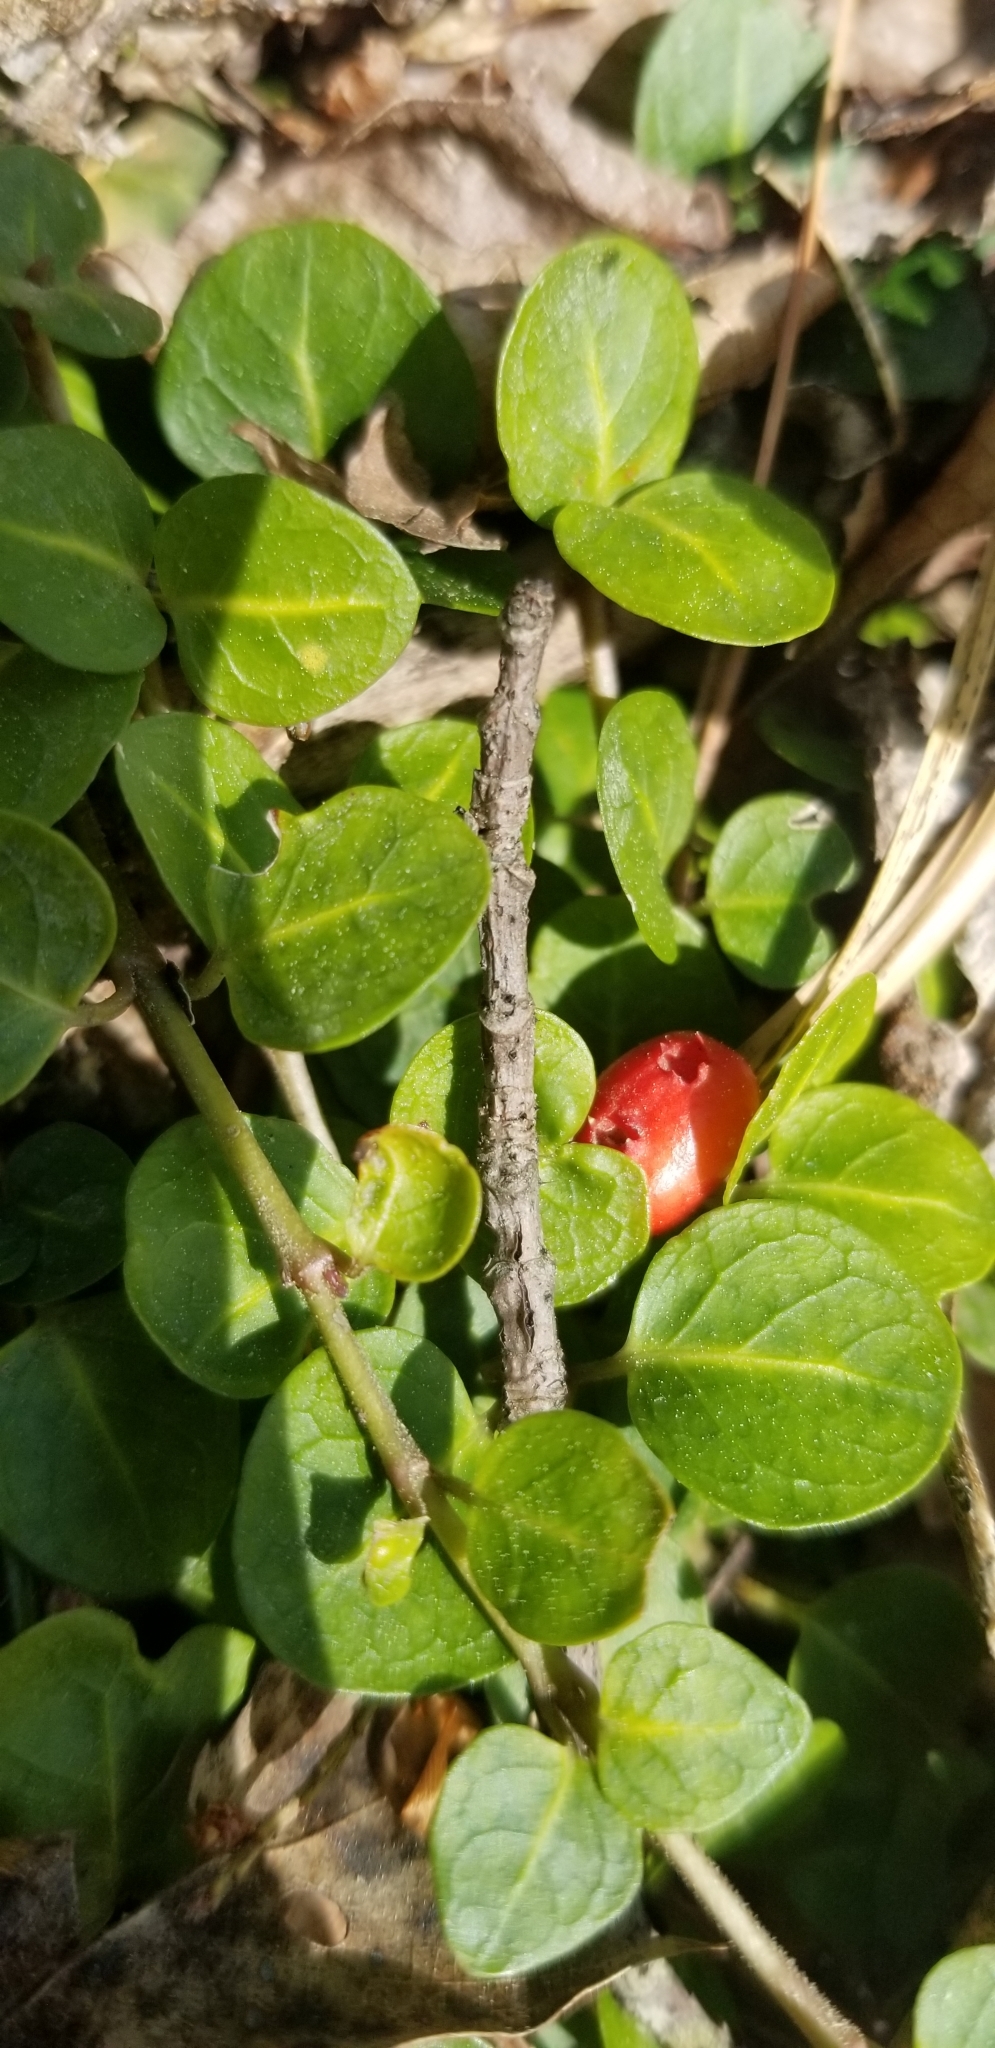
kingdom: Plantae
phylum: Tracheophyta
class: Magnoliopsida
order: Gentianales
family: Rubiaceae
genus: Mitchella
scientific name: Mitchella repens
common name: Partridge-berry
